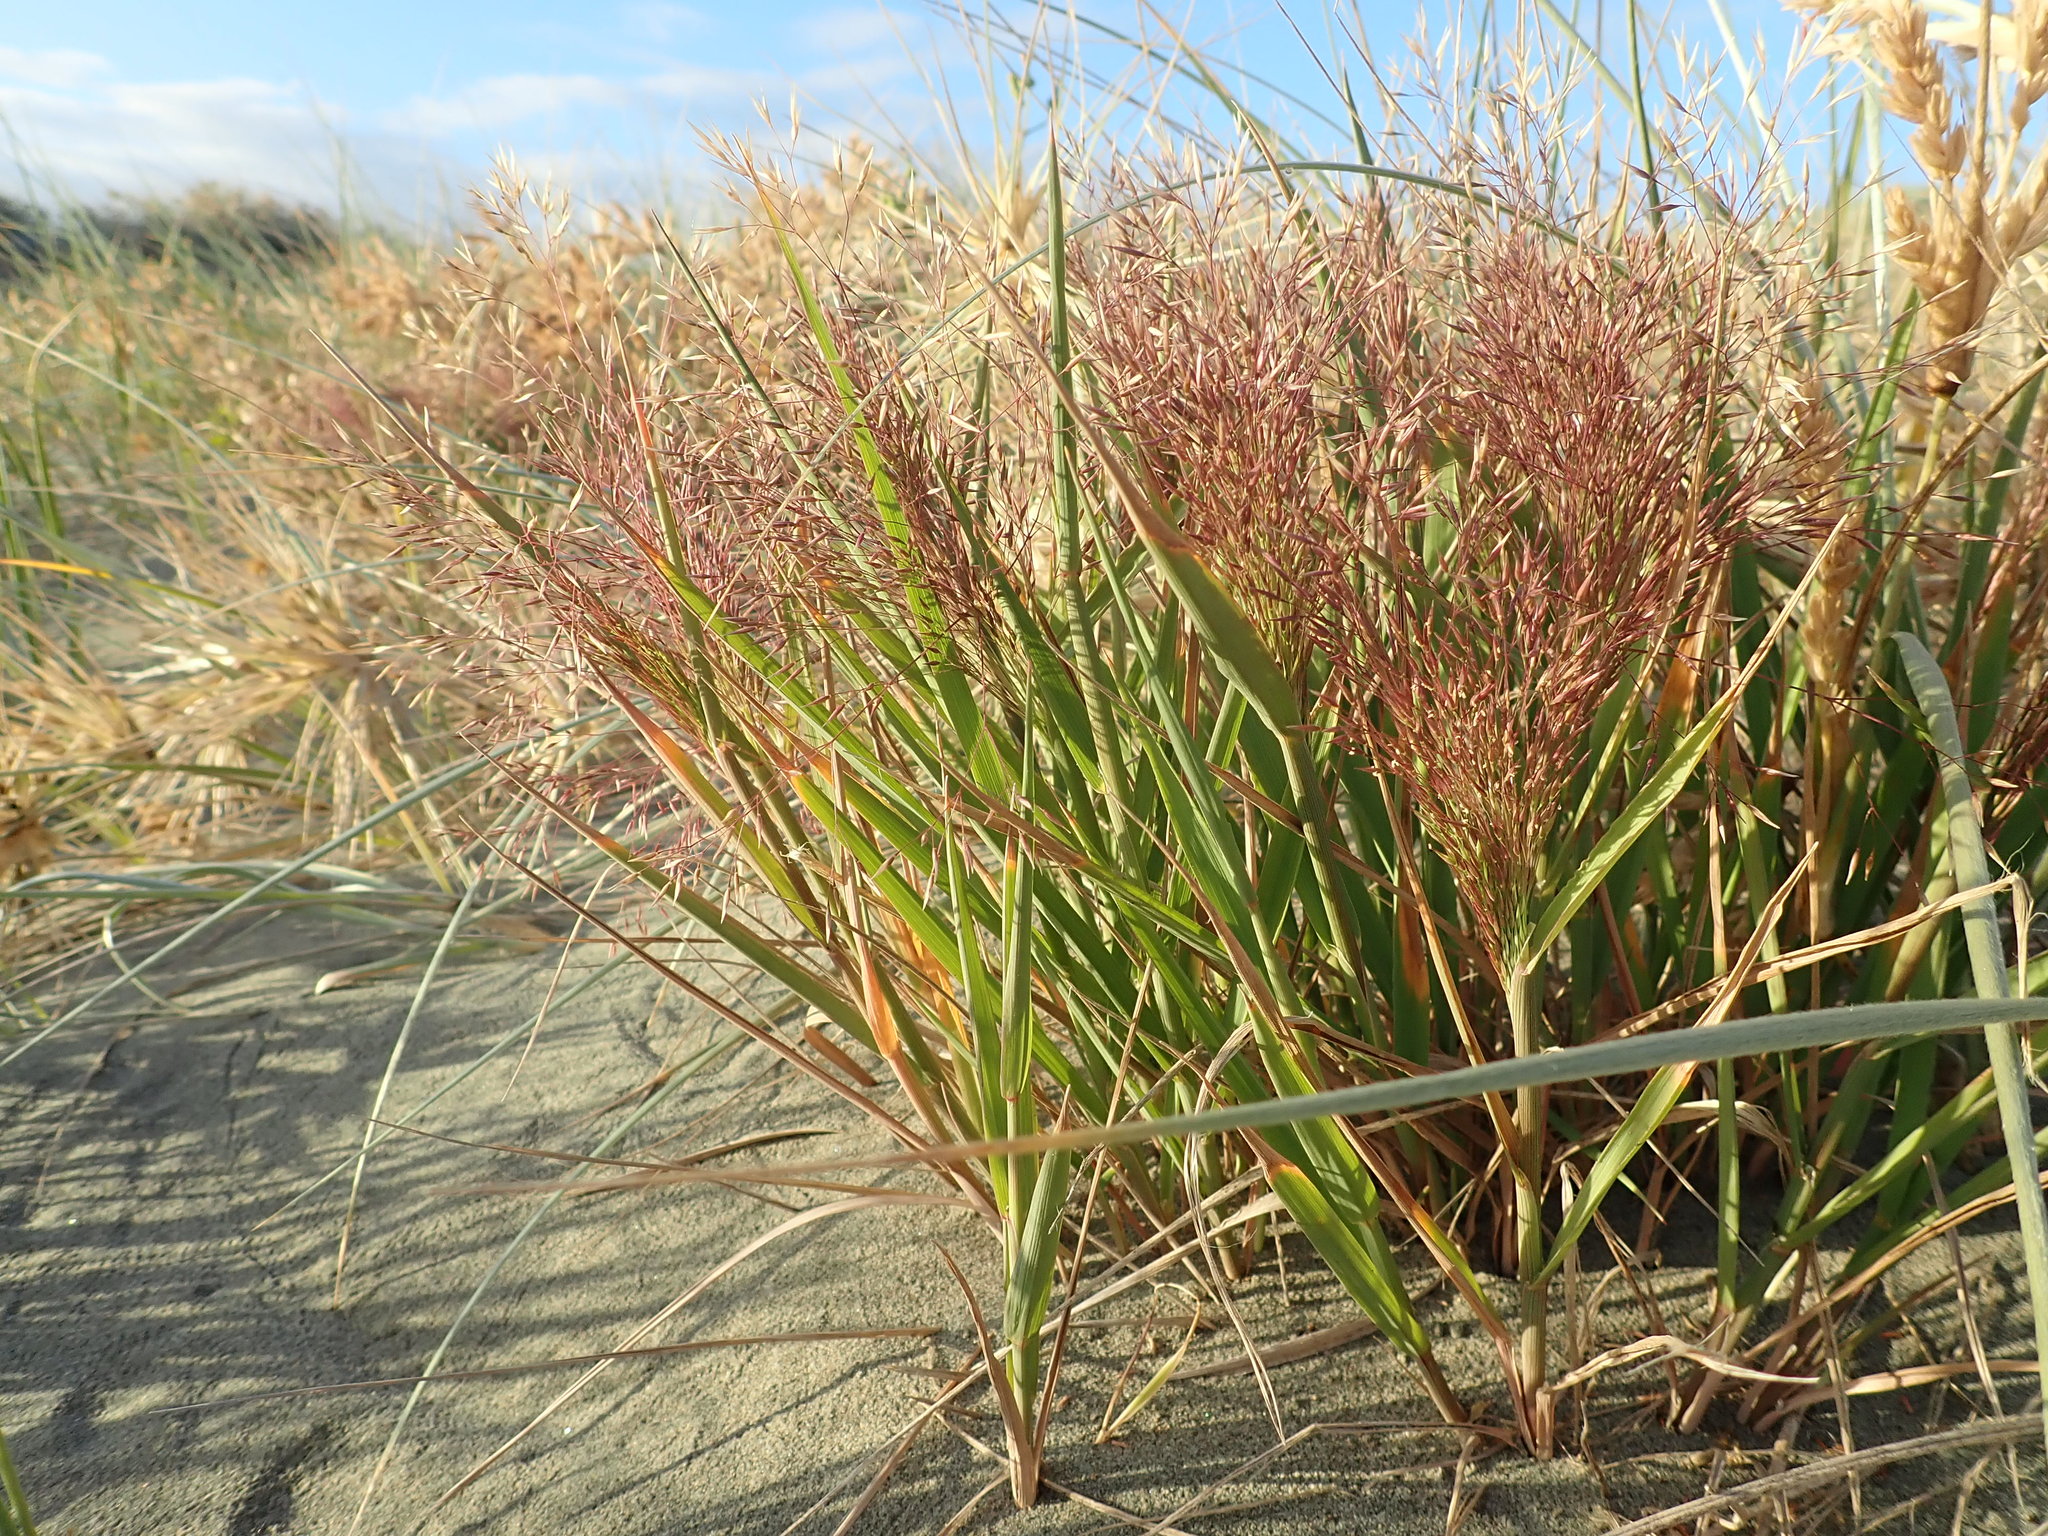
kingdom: Plantae
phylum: Tracheophyta
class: Liliopsida
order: Poales
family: Poaceae
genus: Lachnagrostis
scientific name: Lachnagrostis billardierei
